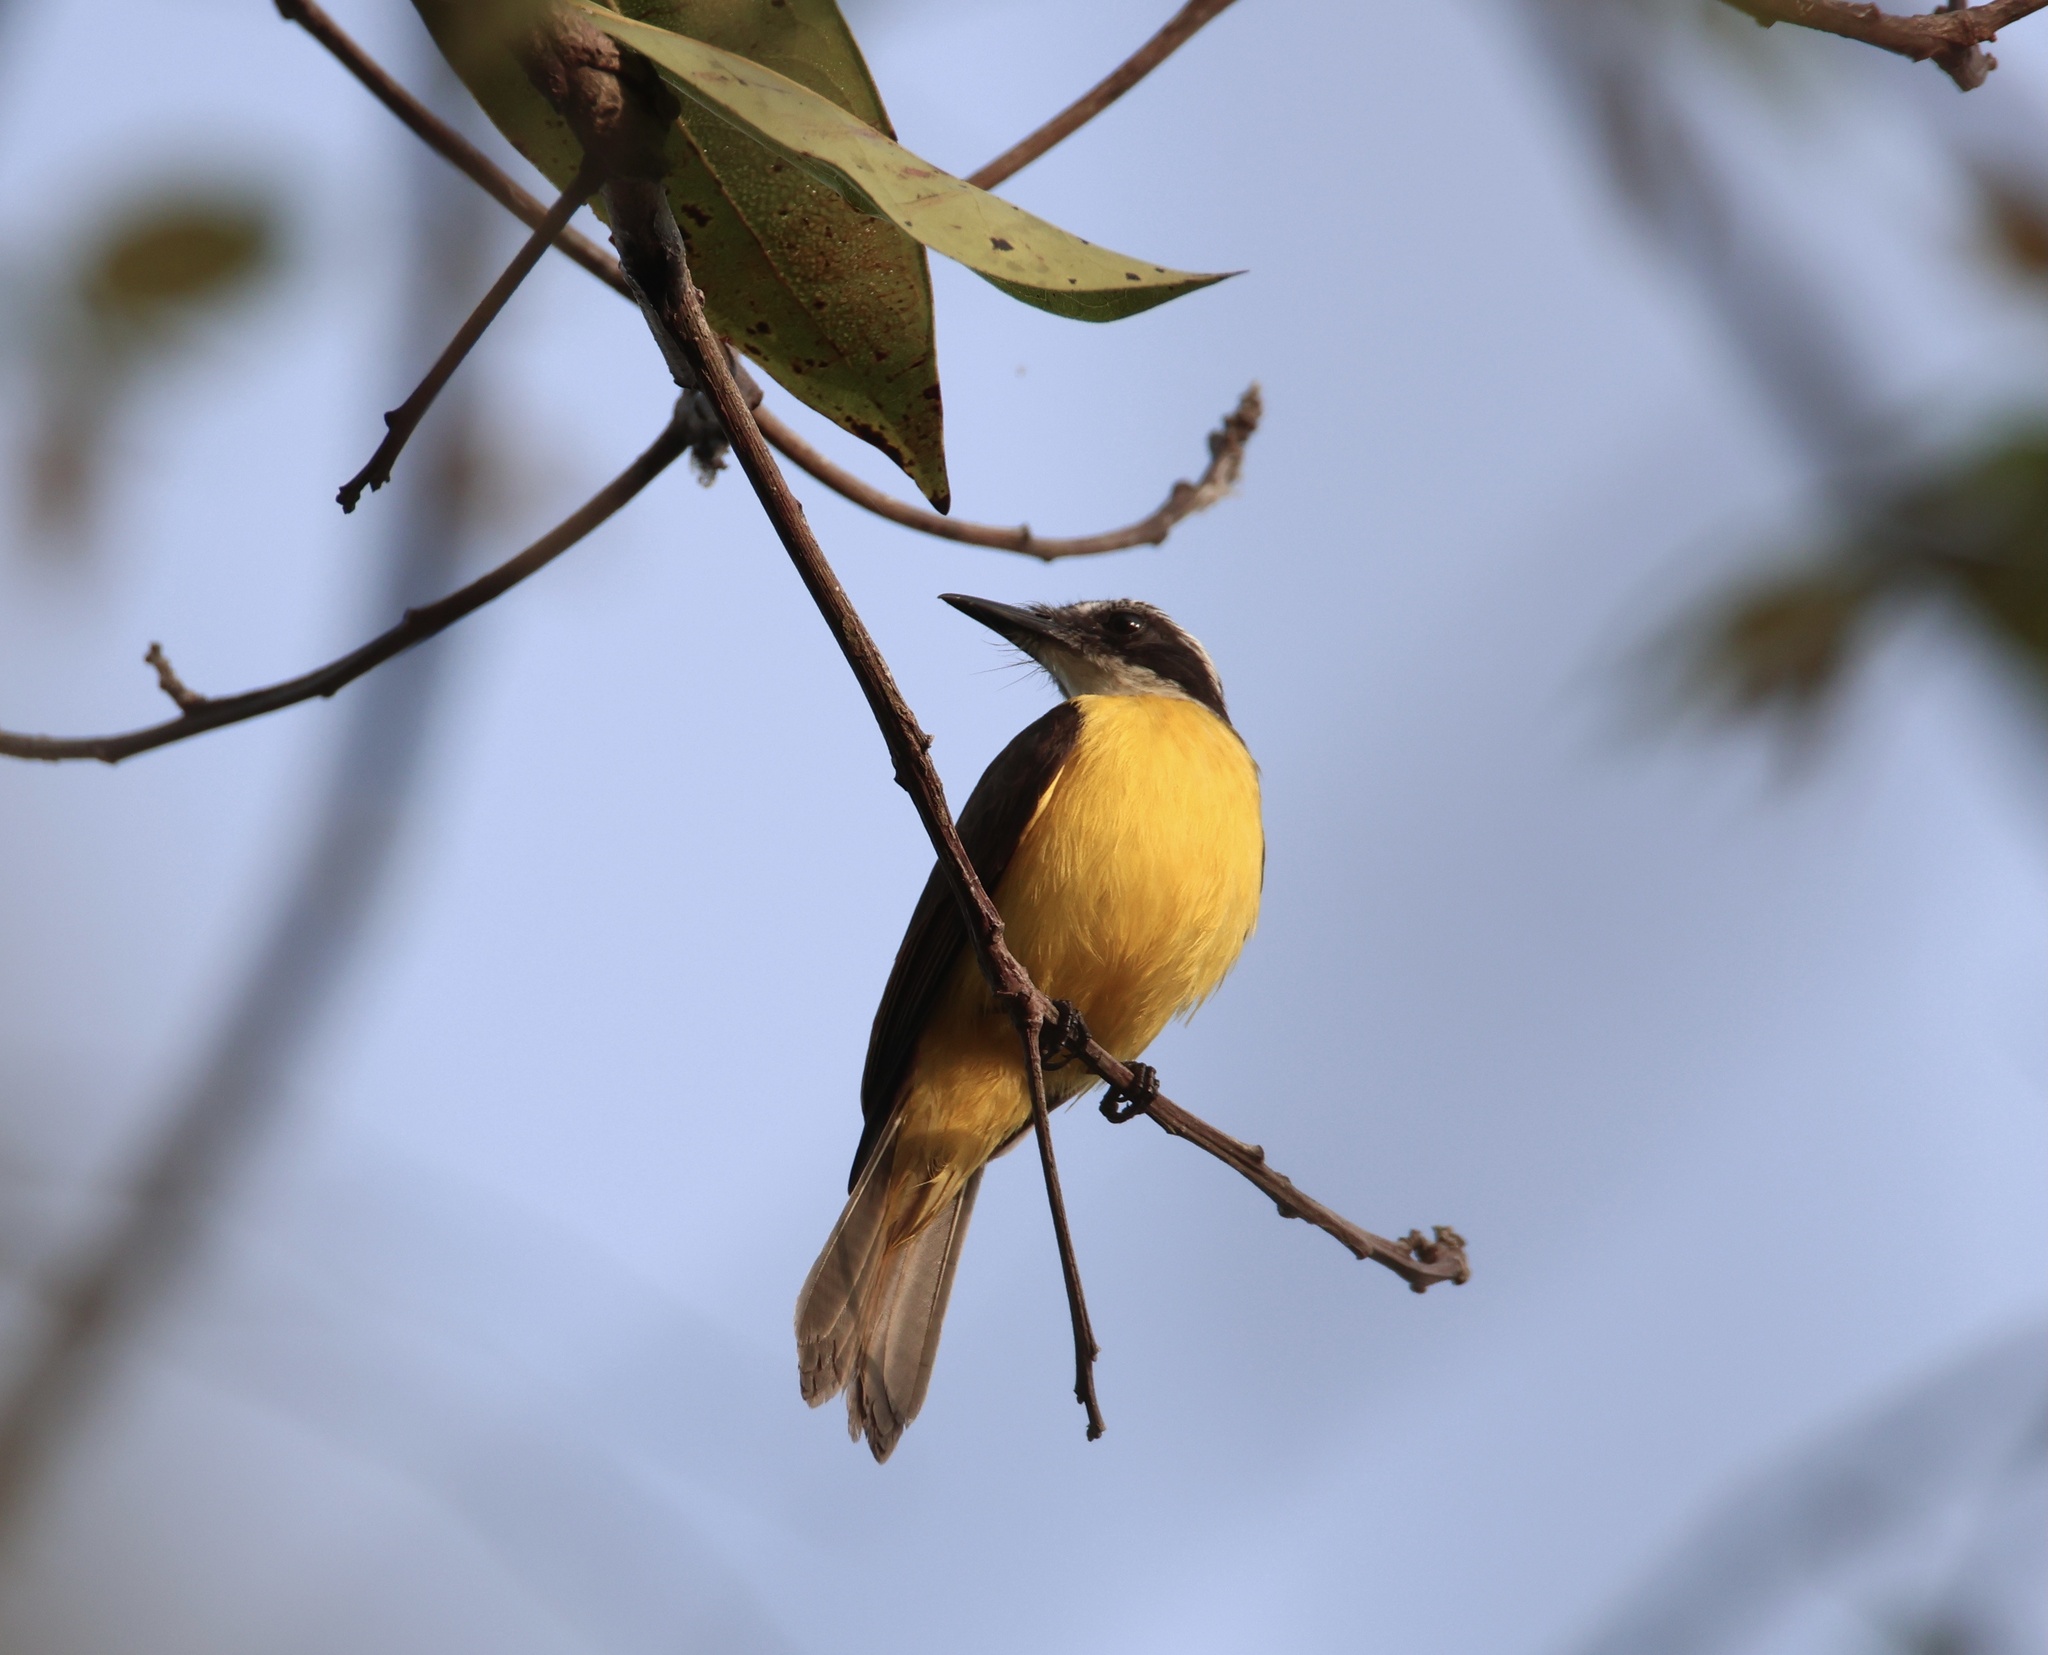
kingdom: Animalia
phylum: Chordata
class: Aves
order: Passeriformes
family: Tyrannidae
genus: Pitangus
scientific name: Pitangus lictor
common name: Lesser kiskadee
